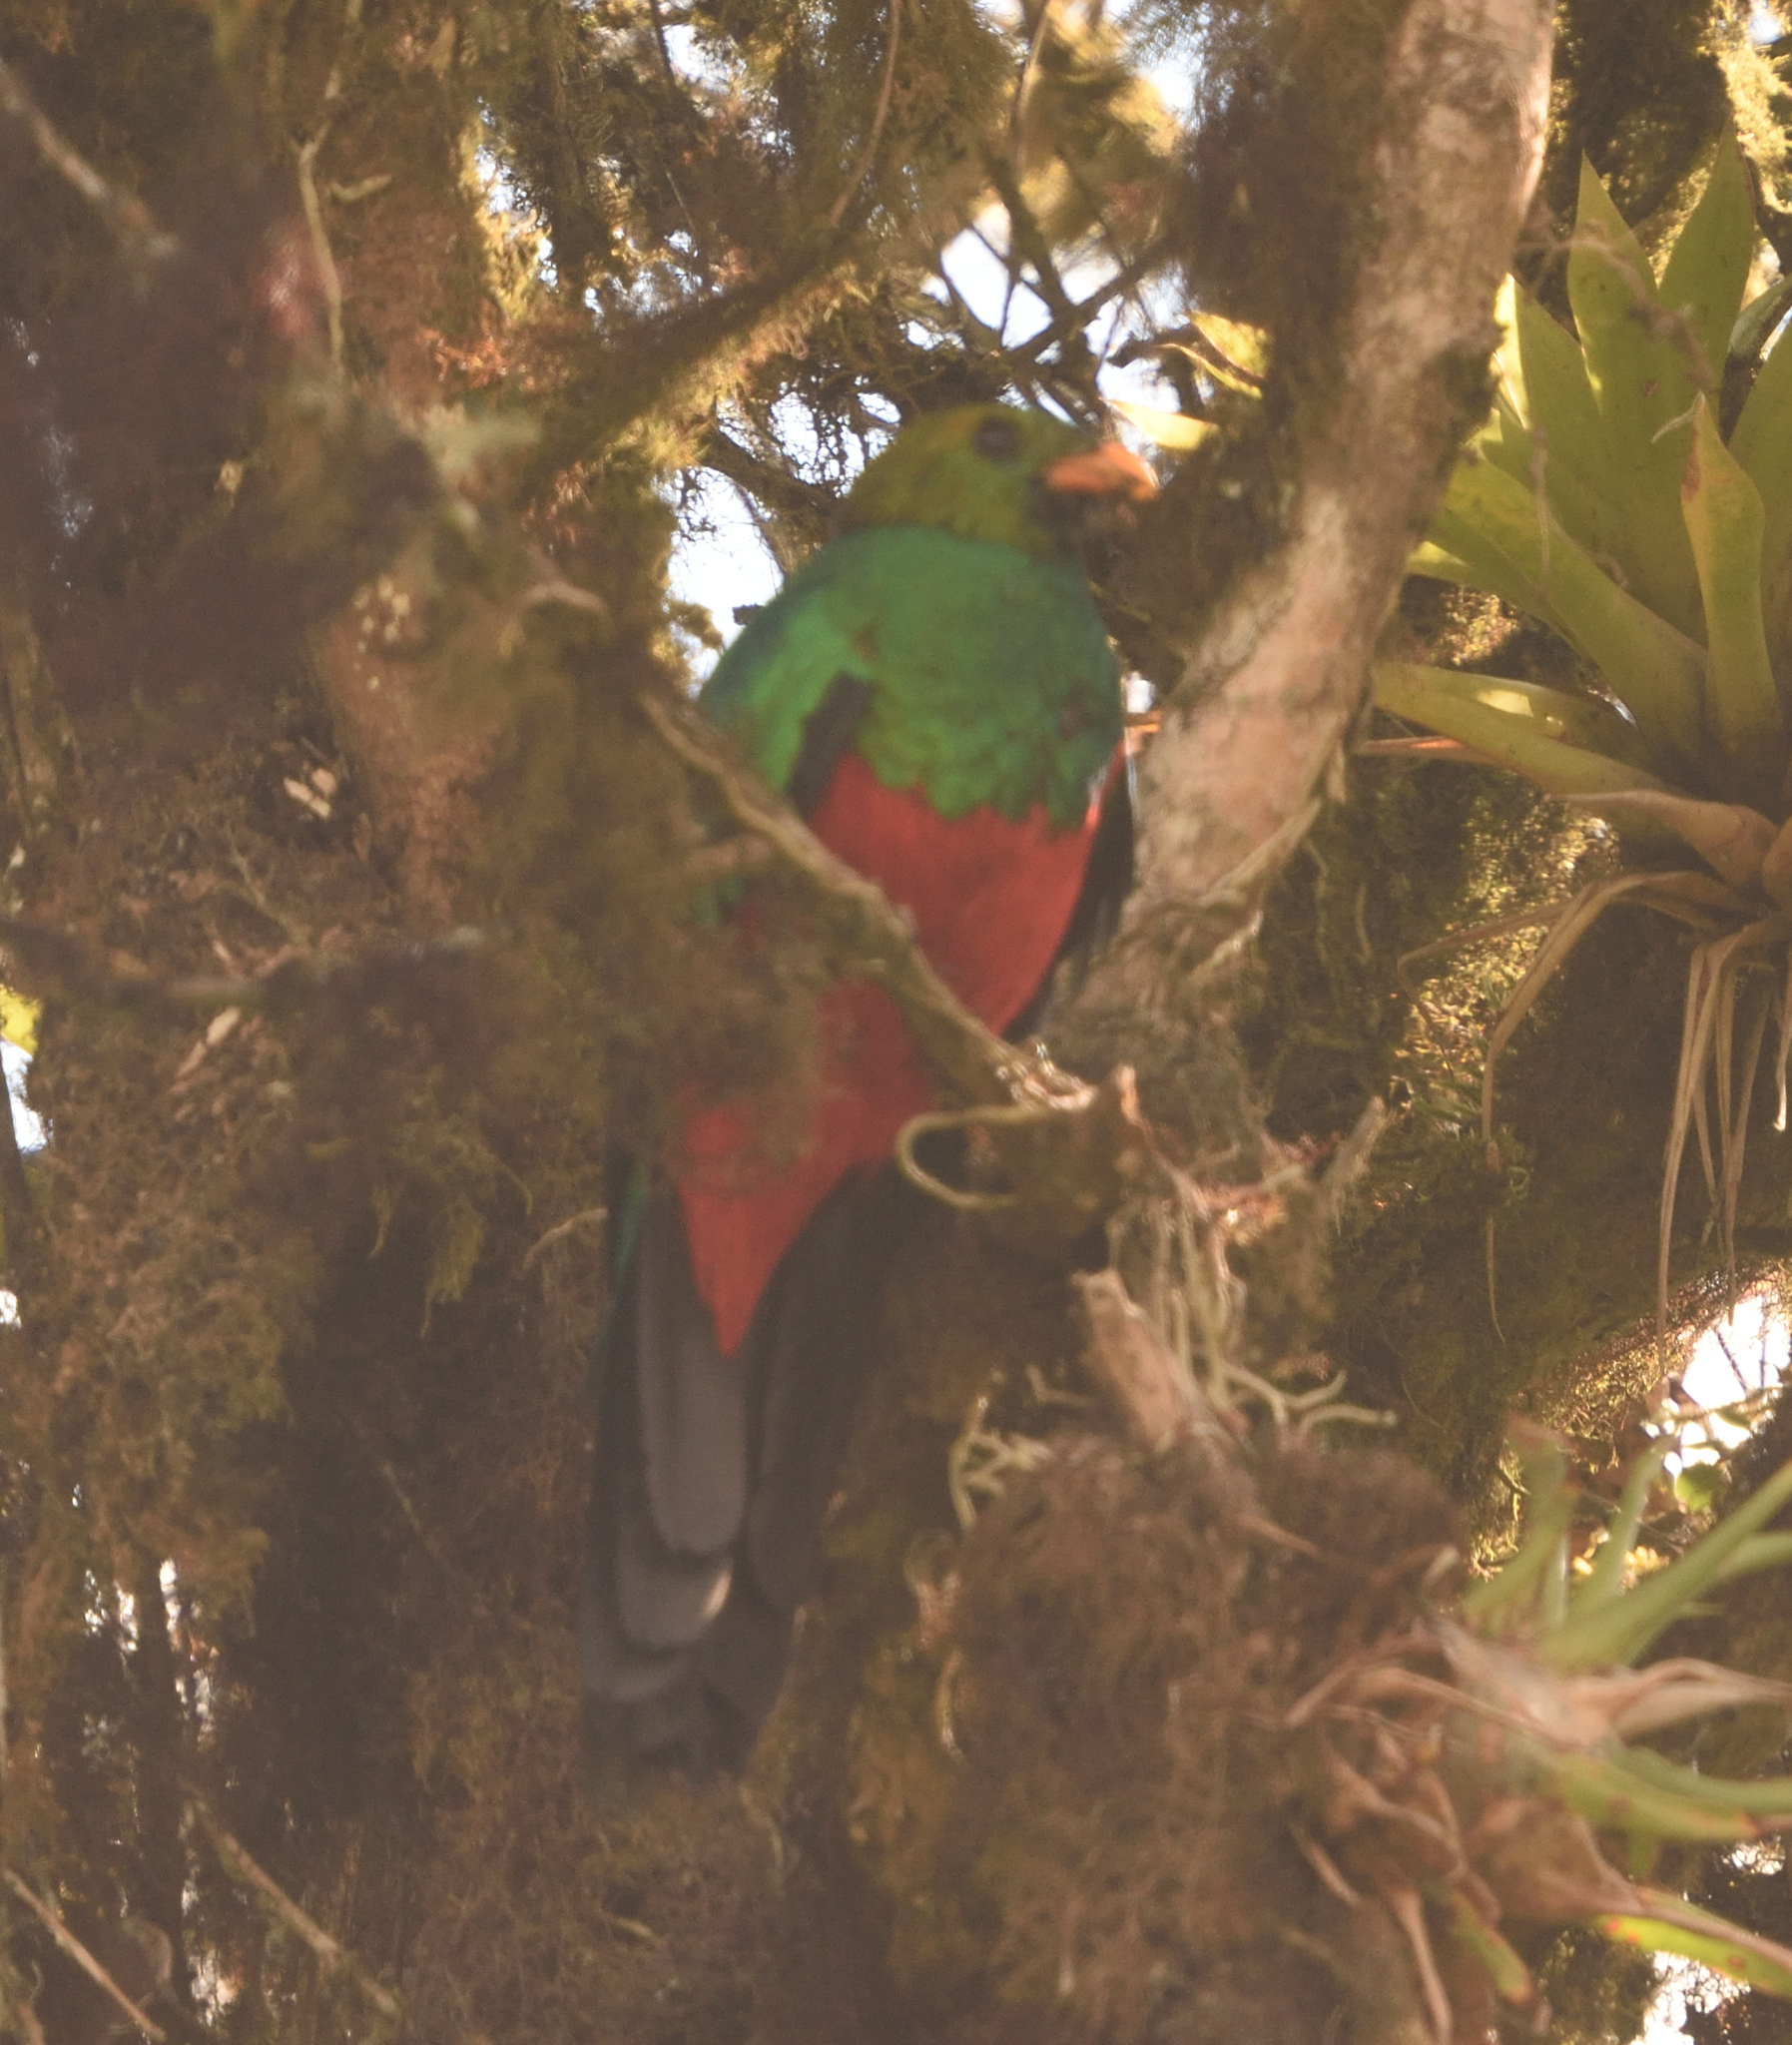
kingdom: Animalia
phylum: Chordata
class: Aves
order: Trogoniformes
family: Trogonidae
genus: Pharomachrus
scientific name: Pharomachrus auriceps
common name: Golden-headed quetzal
